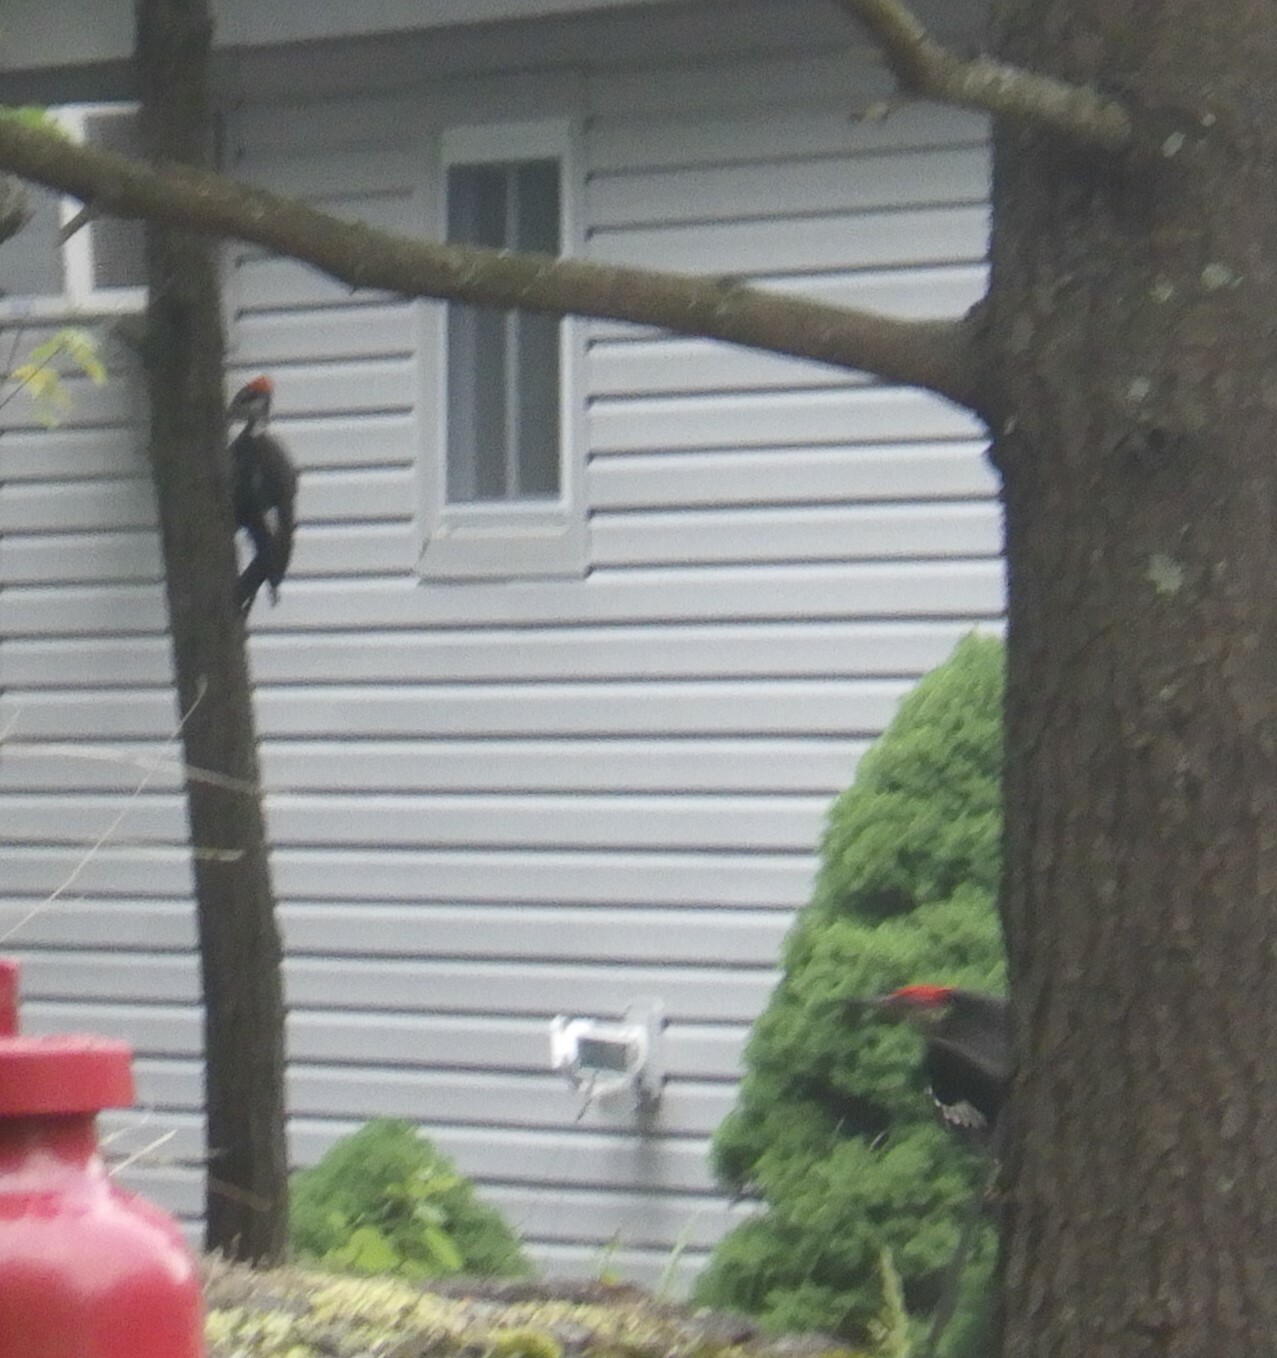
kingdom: Animalia
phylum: Chordata
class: Aves
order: Piciformes
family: Picidae
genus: Dryocopus
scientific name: Dryocopus pileatus
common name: Pileated woodpecker
